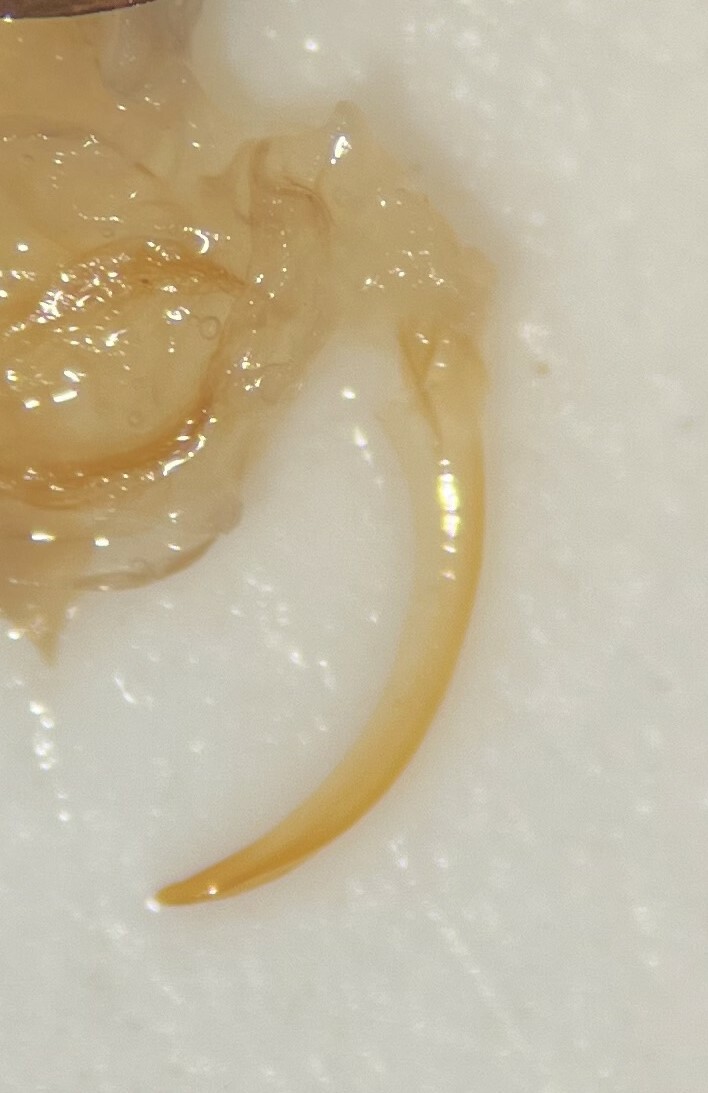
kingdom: Animalia
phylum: Arthropoda
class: Insecta
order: Coleoptera
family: Dytiscidae
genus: Platambus
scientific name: Platambus semivittatus
